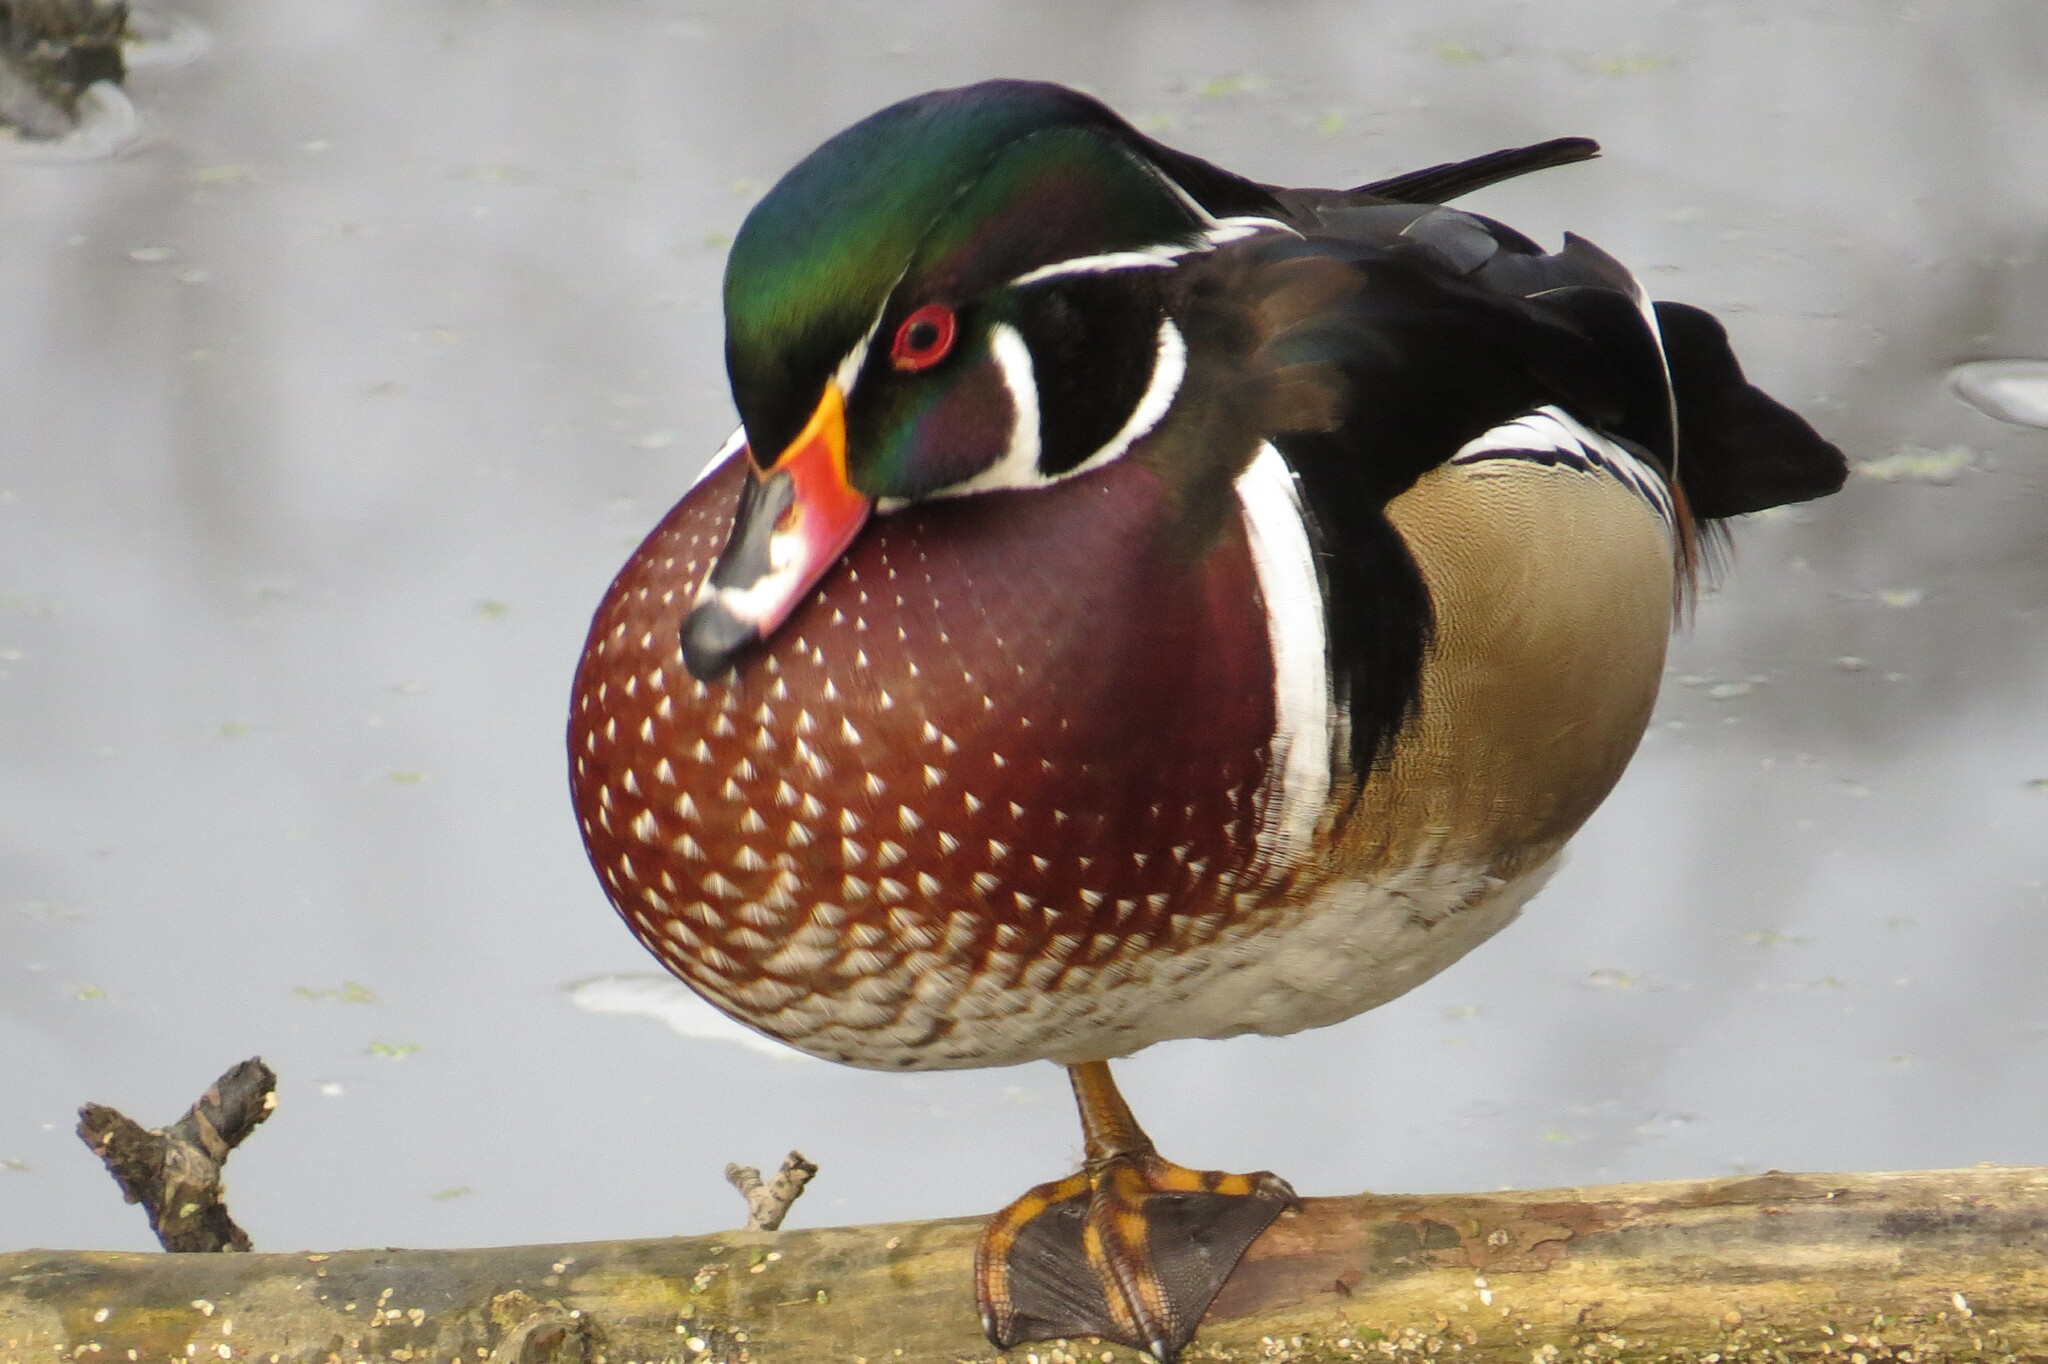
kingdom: Animalia
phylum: Chordata
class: Aves
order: Anseriformes
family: Anatidae
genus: Aix
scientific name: Aix sponsa
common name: Wood duck
